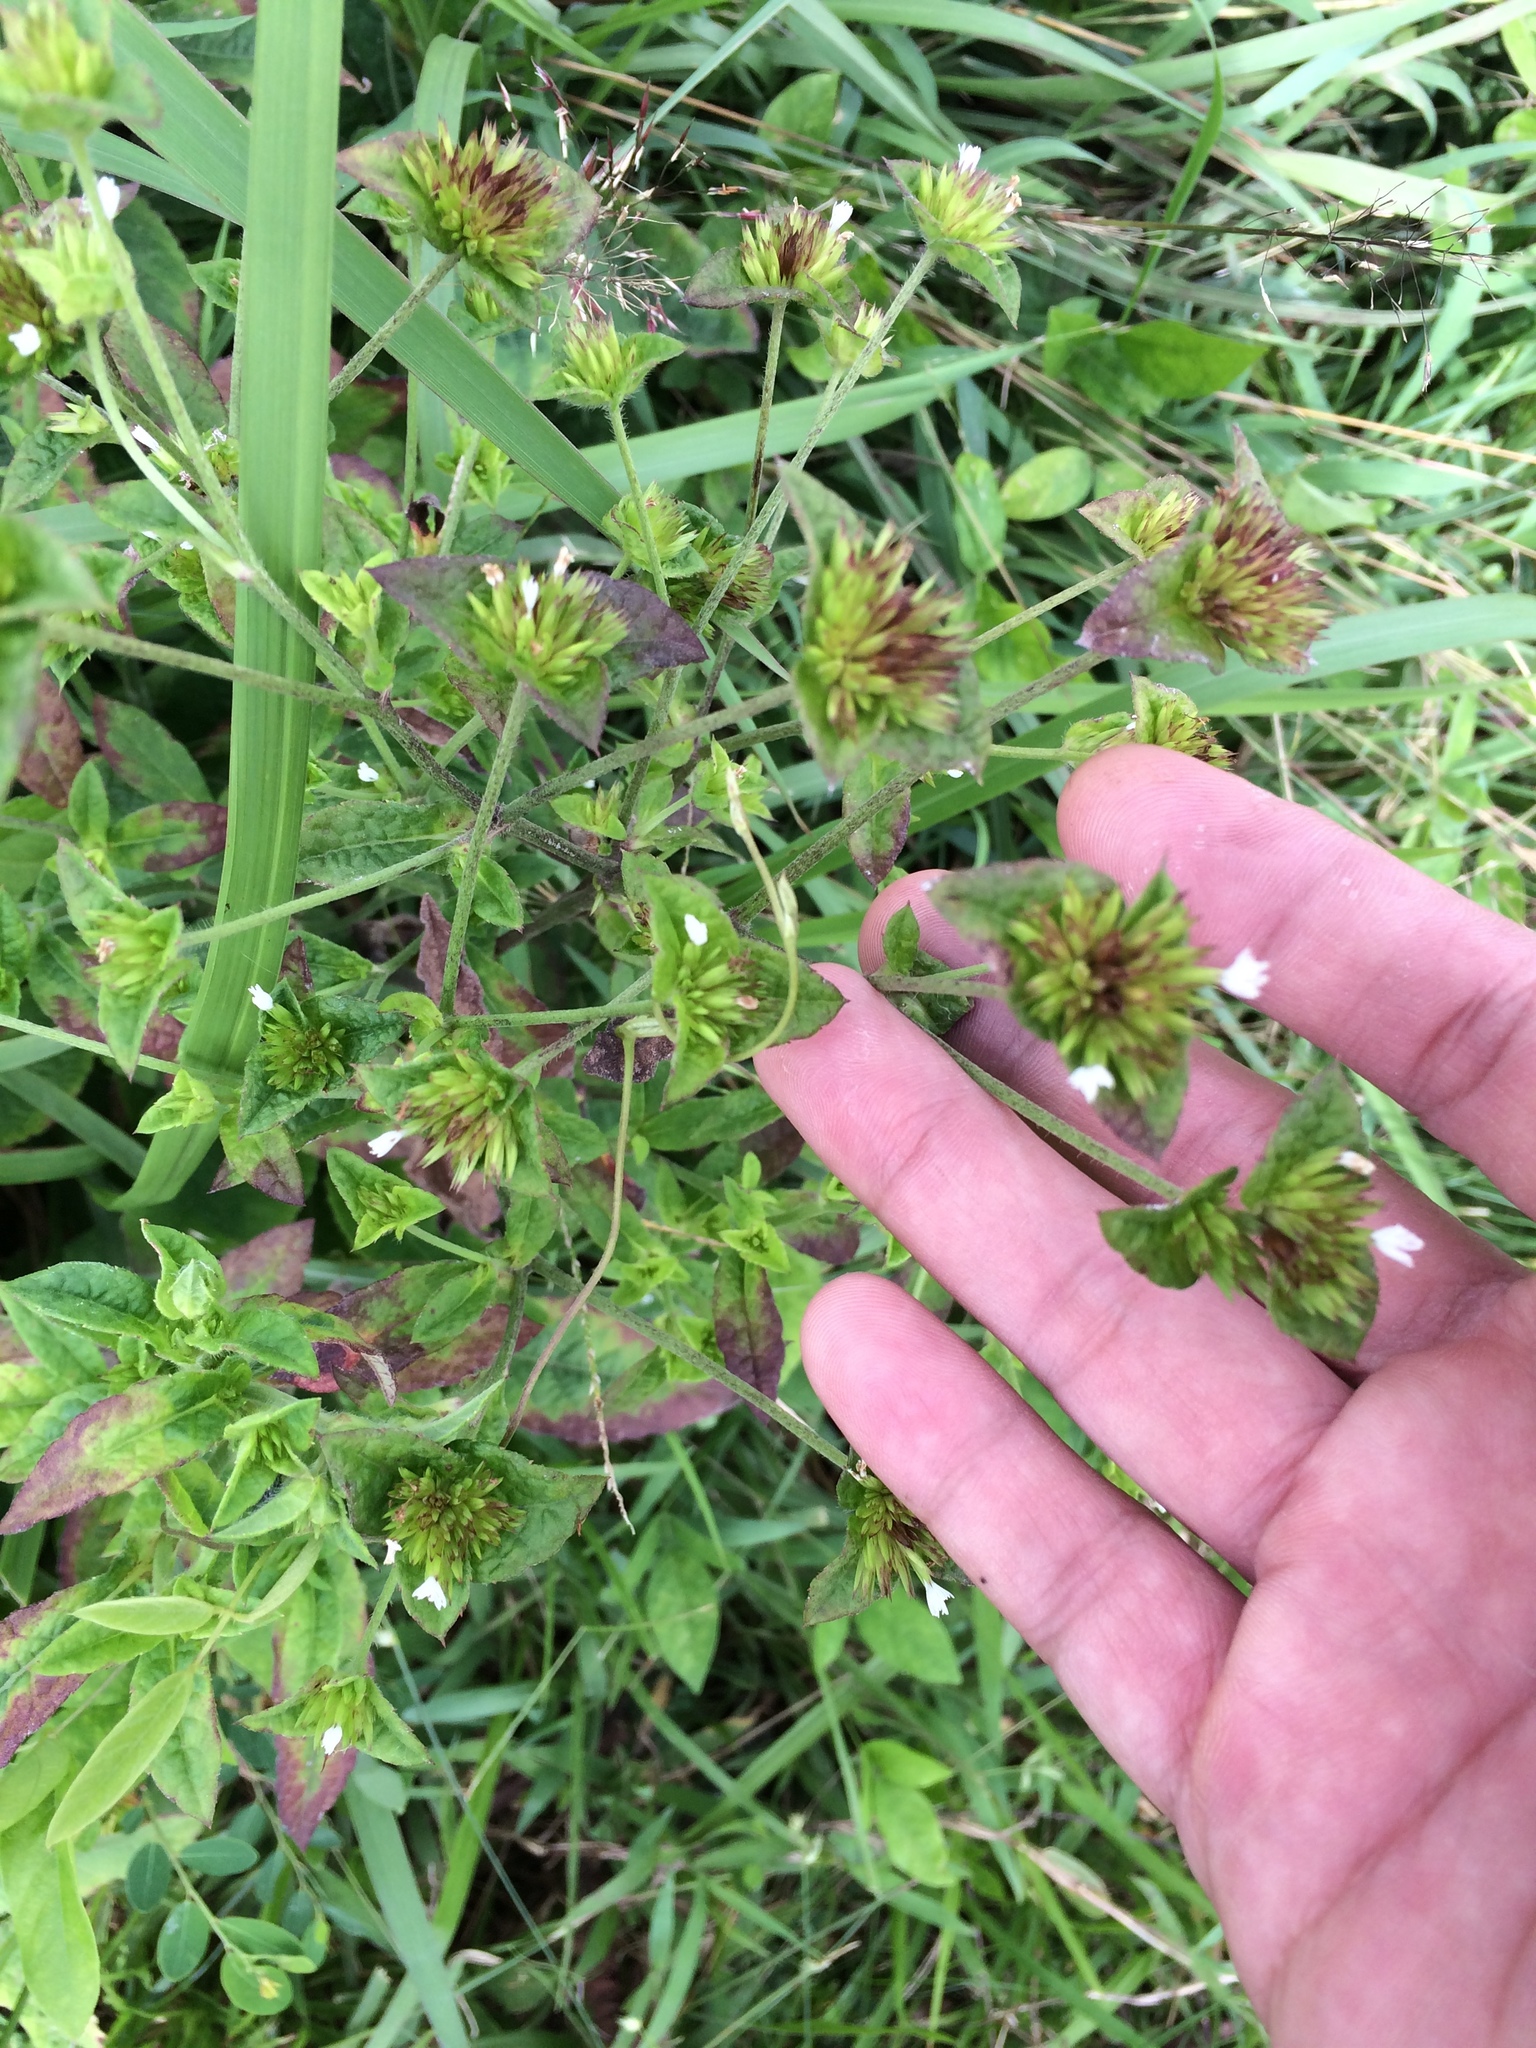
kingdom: Plantae
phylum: Tracheophyta
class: Magnoliopsida
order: Asterales
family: Asteraceae
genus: Elephantopus
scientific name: Elephantopus mollis
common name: Soft elephantsfoot
